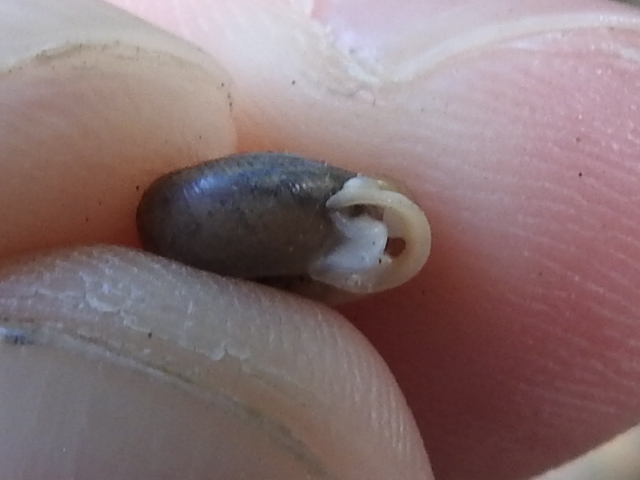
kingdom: Animalia
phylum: Mollusca
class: Gastropoda
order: Stylommatophora
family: Polygyridae
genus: Linisa
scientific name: Linisa texasiana
